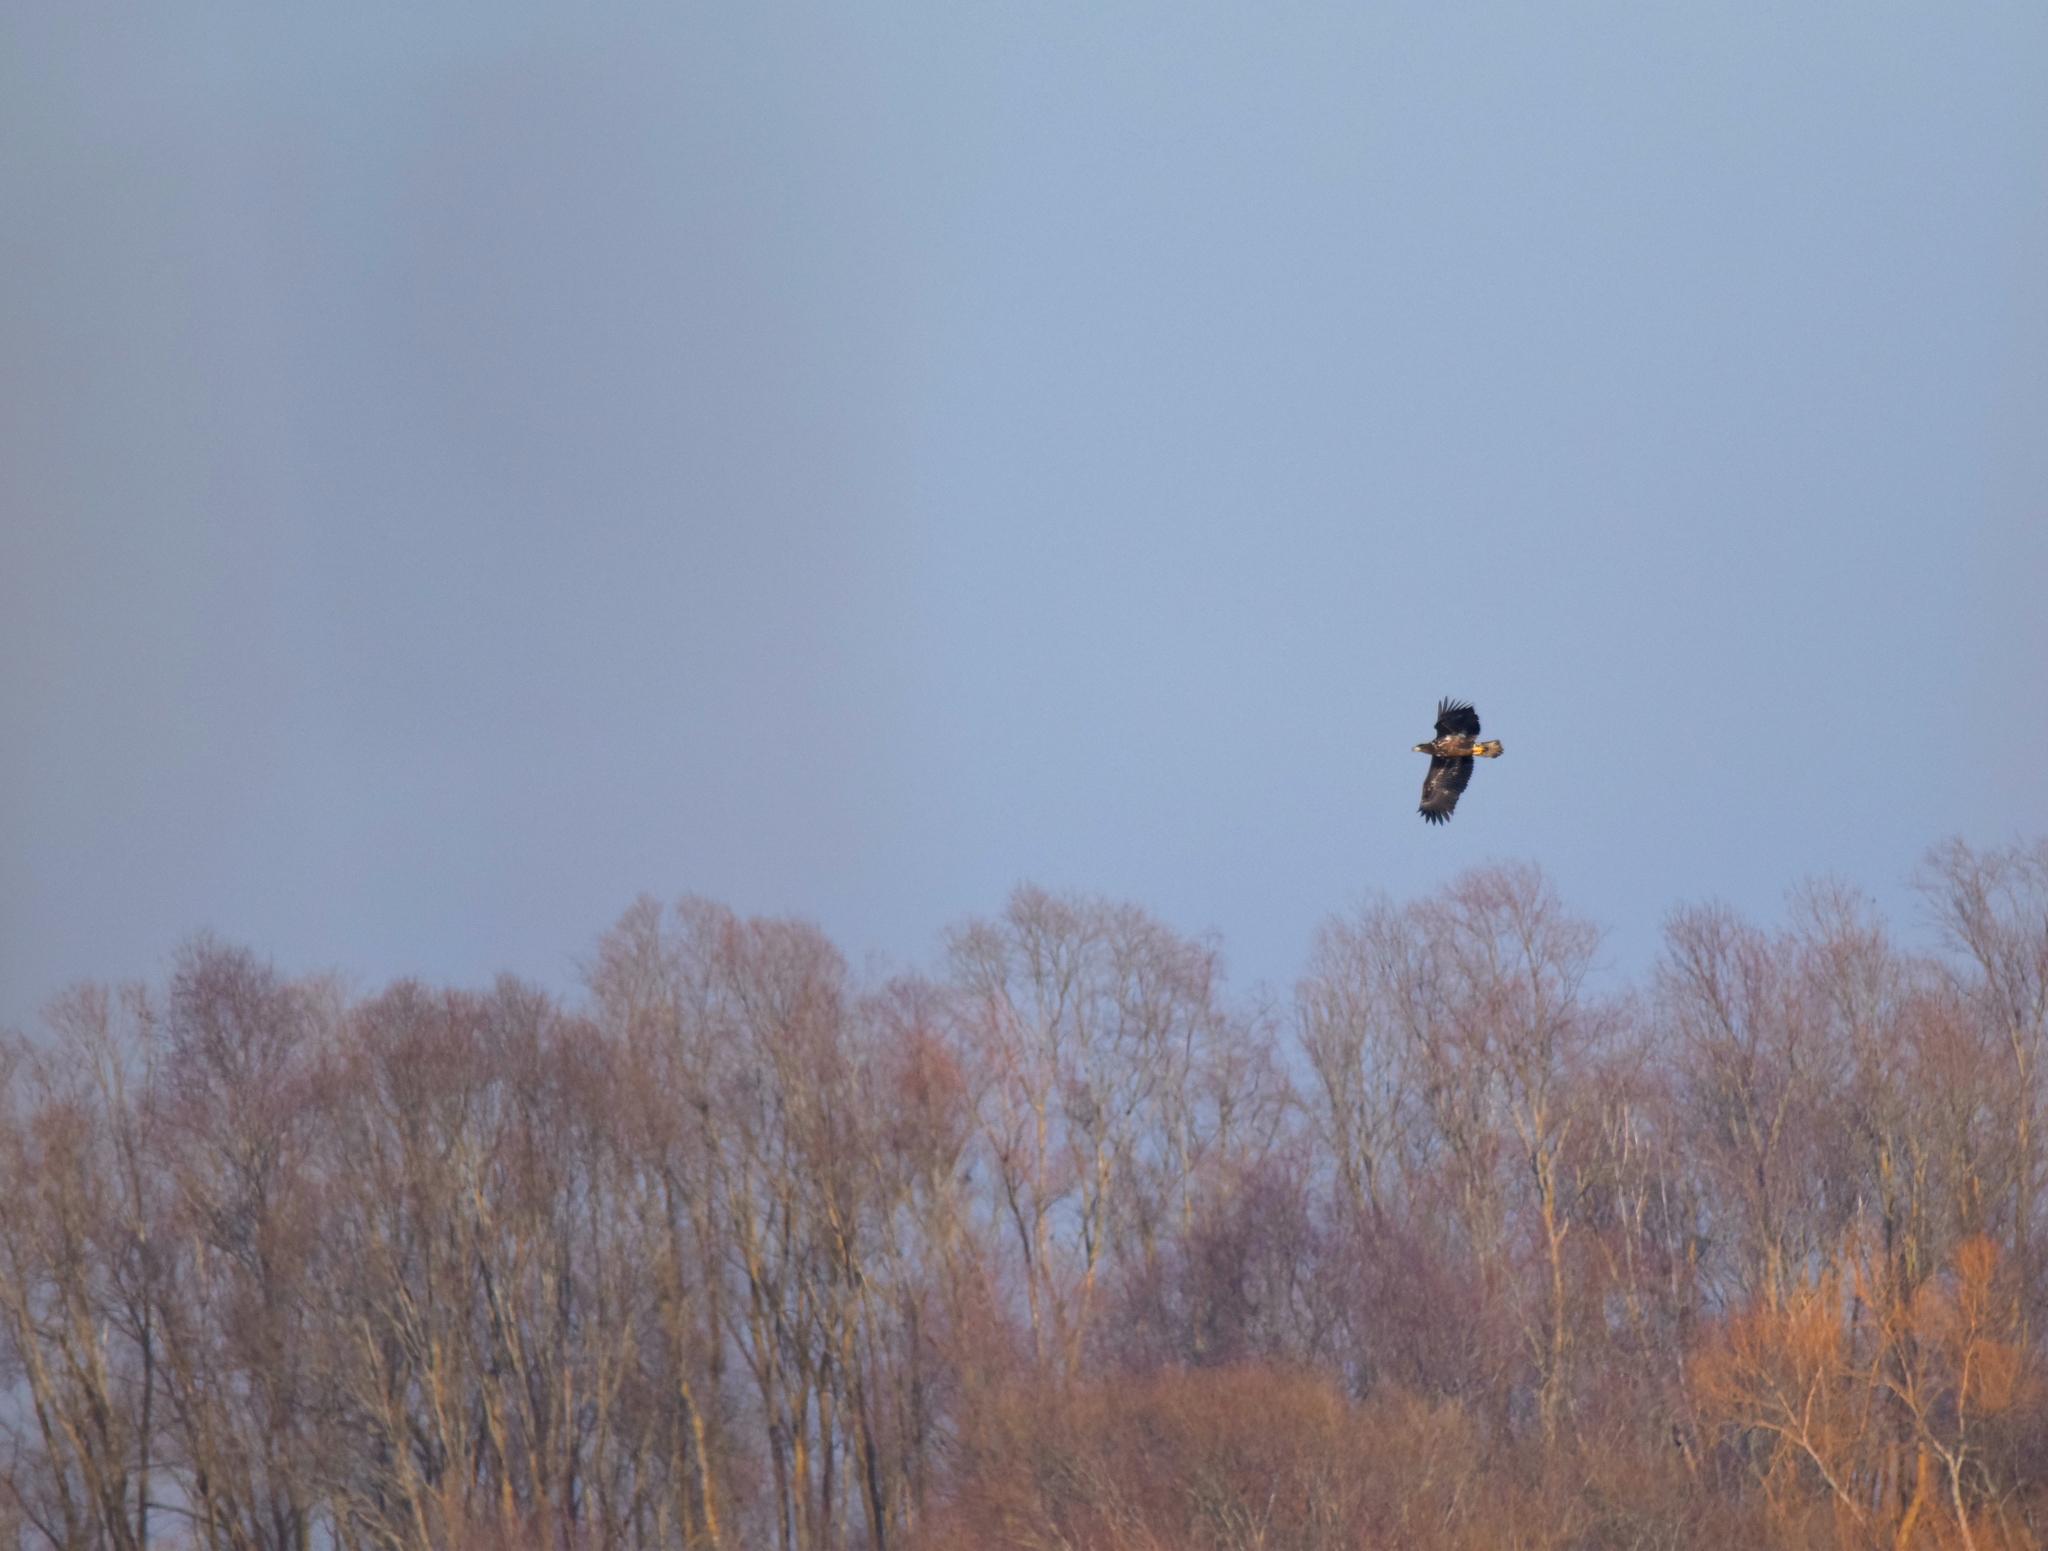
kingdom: Animalia
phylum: Chordata
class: Aves
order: Accipitriformes
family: Accipitridae
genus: Haliaeetus
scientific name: Haliaeetus albicilla
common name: White-tailed eagle
